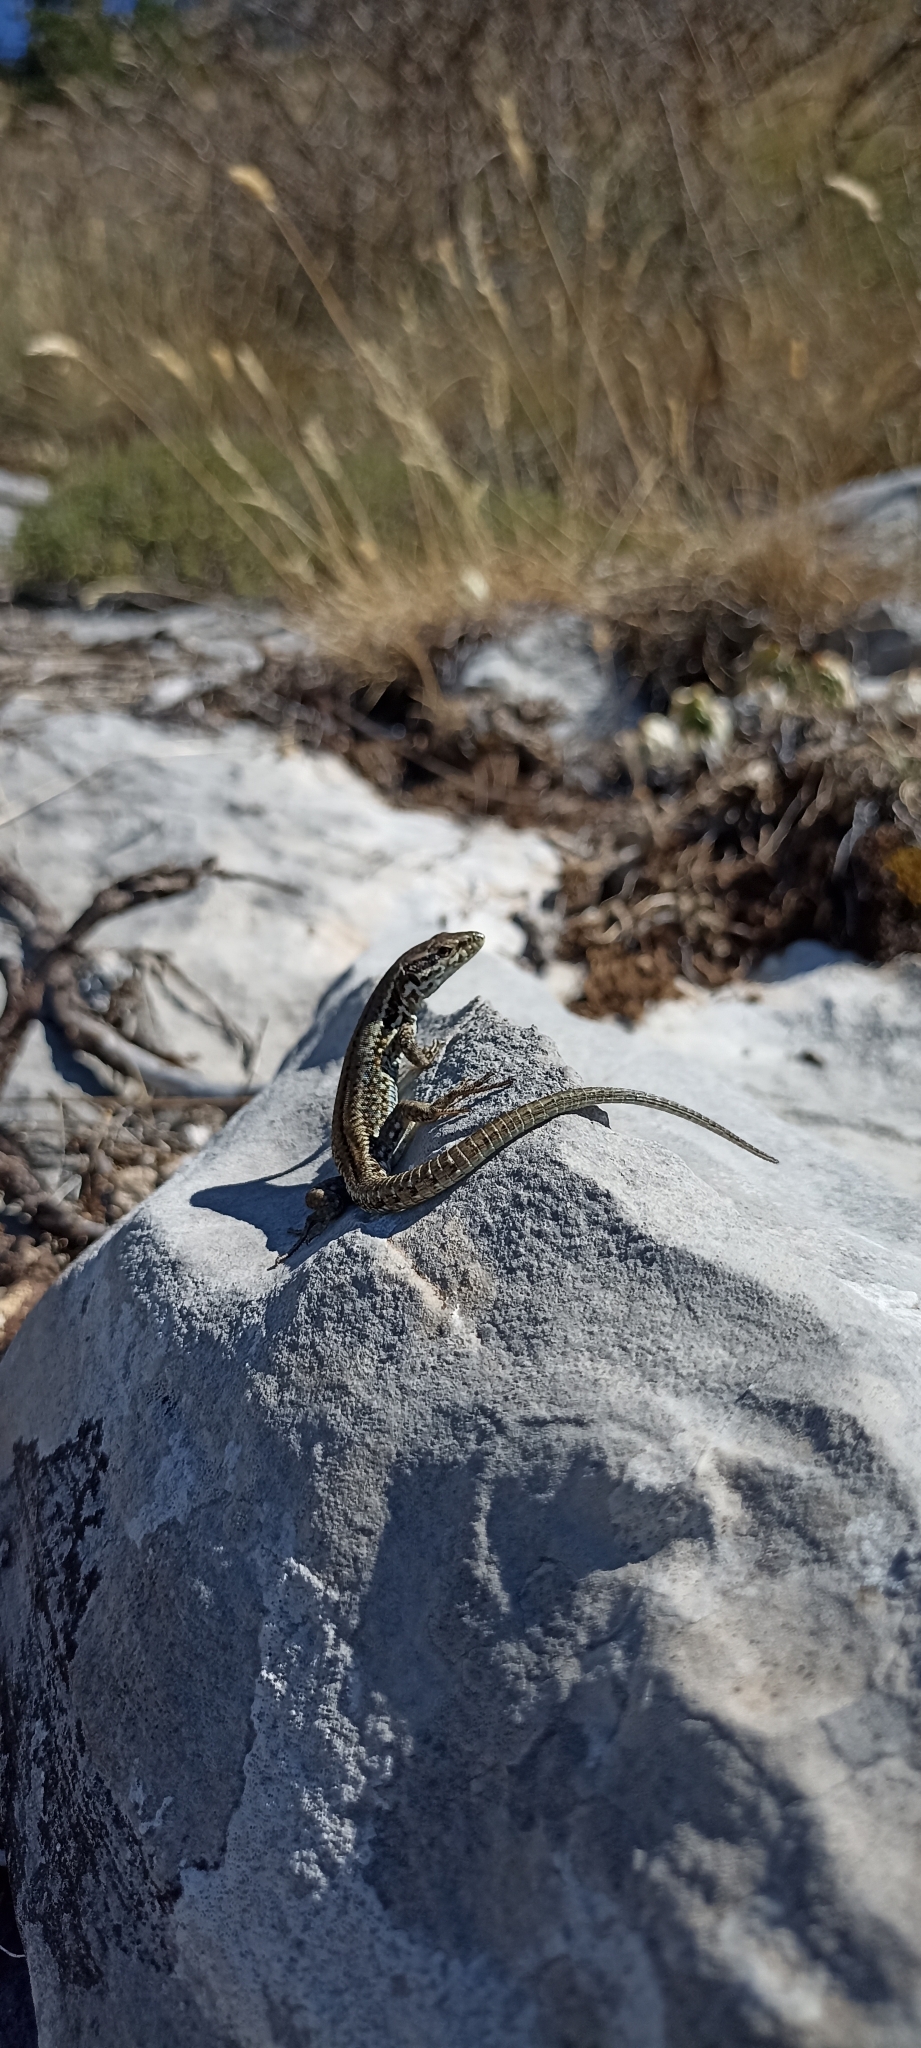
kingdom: Animalia
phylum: Chordata
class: Squamata
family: Lacertidae
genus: Podarcis
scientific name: Podarcis muralis
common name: Common wall lizard
